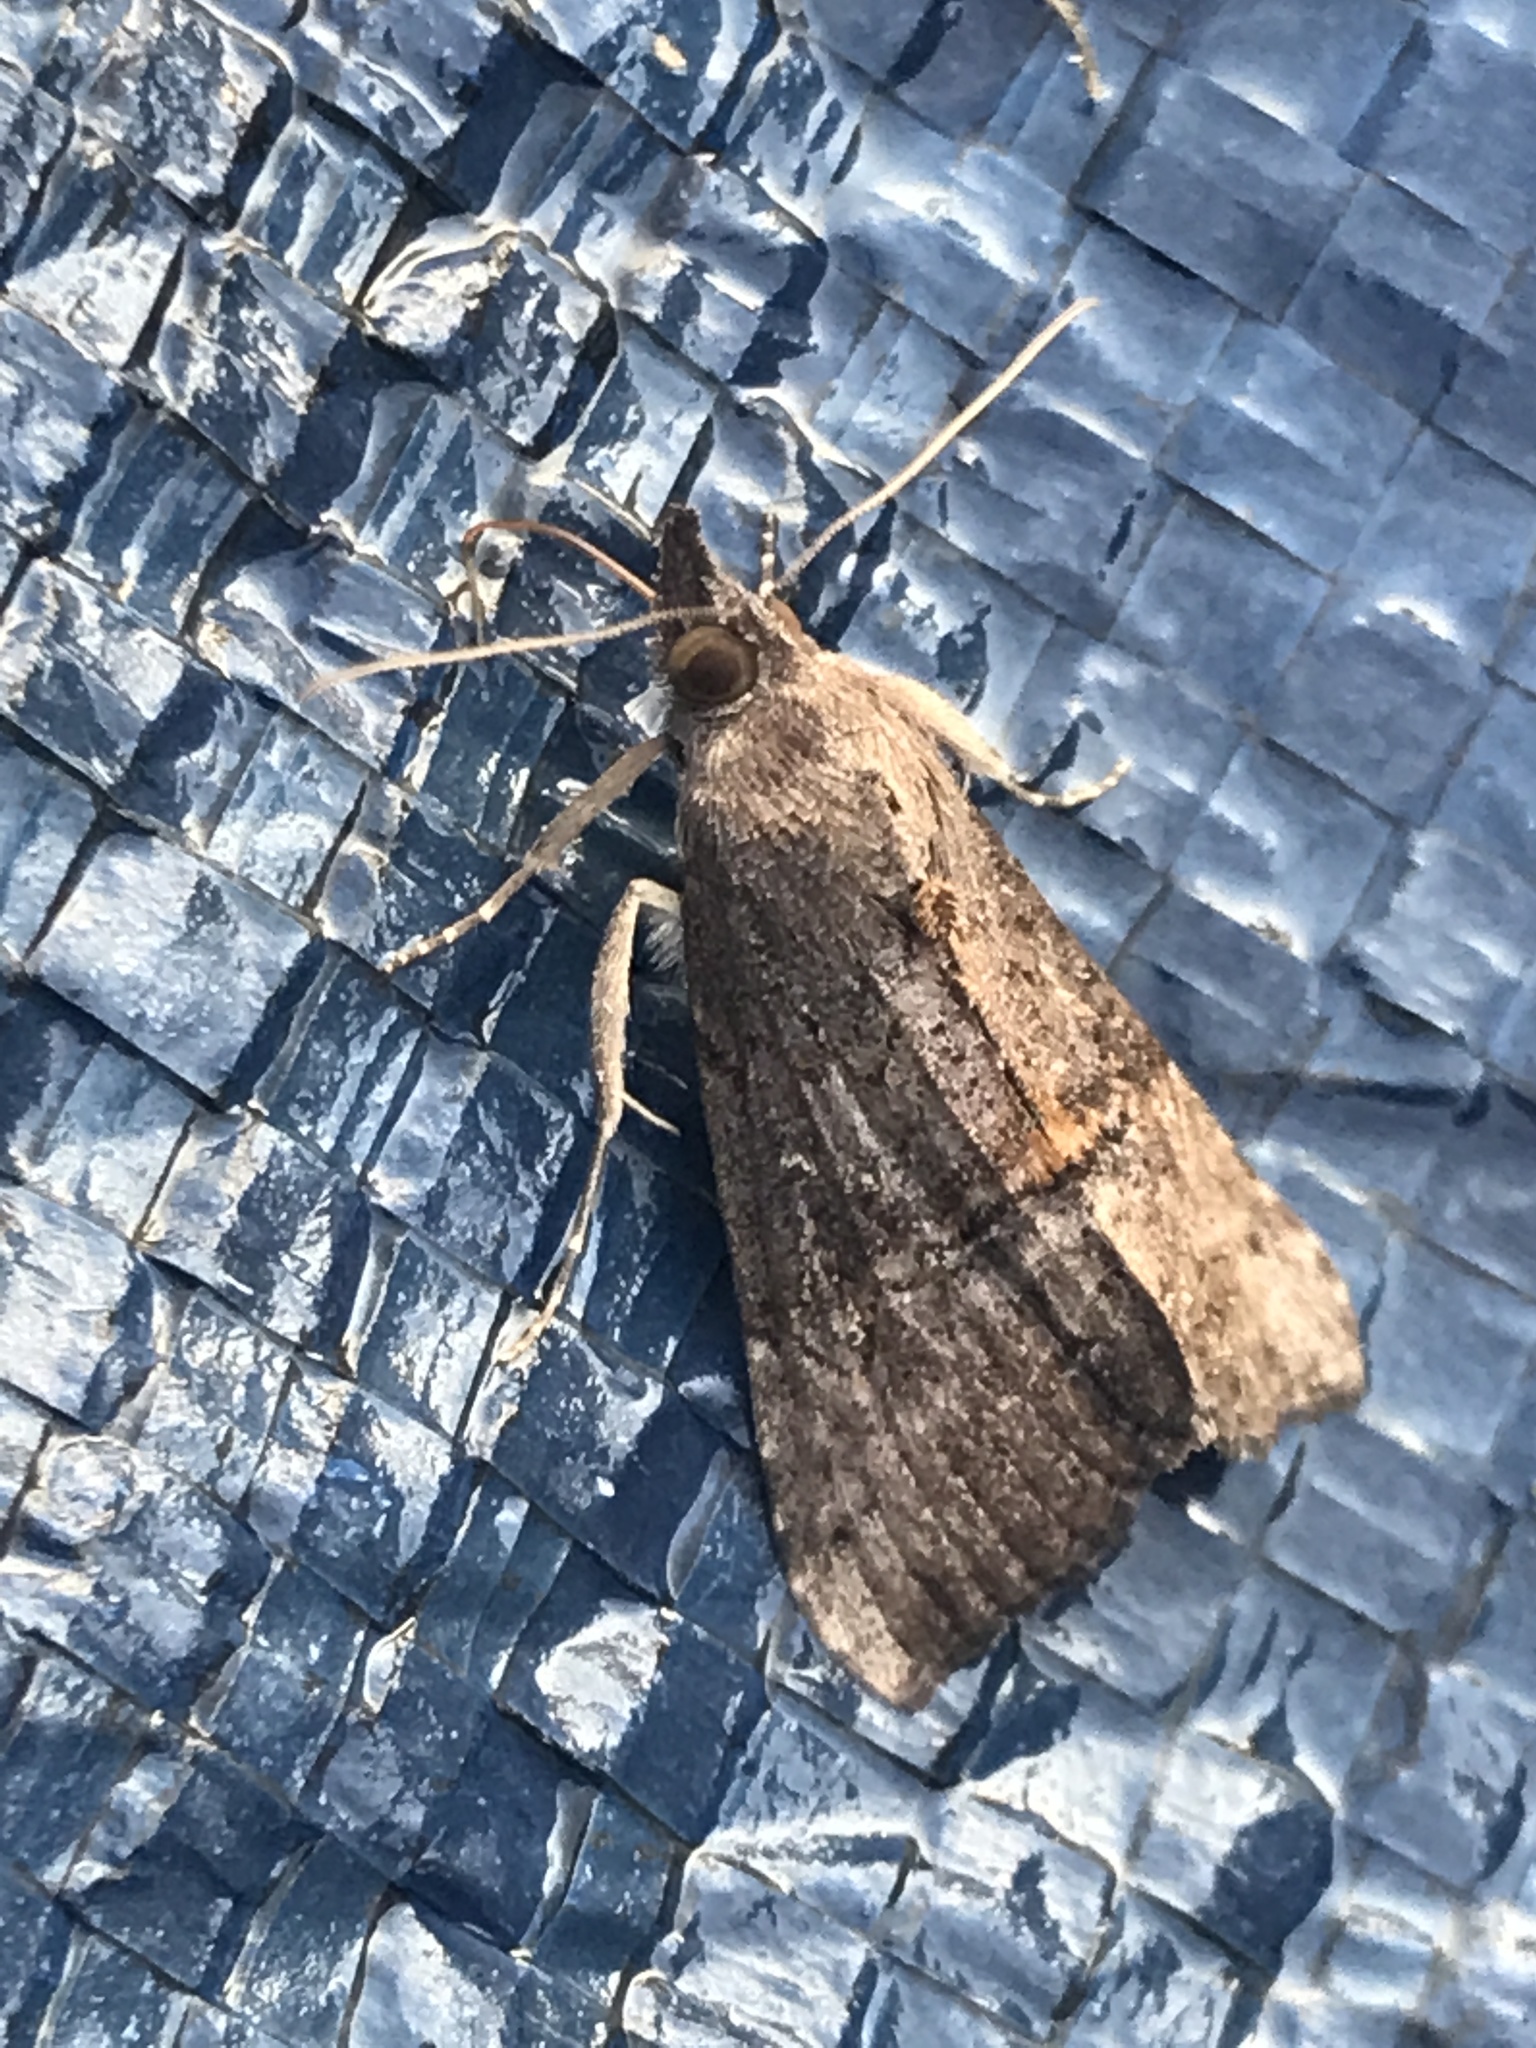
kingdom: Animalia
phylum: Arthropoda
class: Insecta
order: Lepidoptera
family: Erebidae
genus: Hypena
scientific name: Hypena scabra
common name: Green cloverworm
